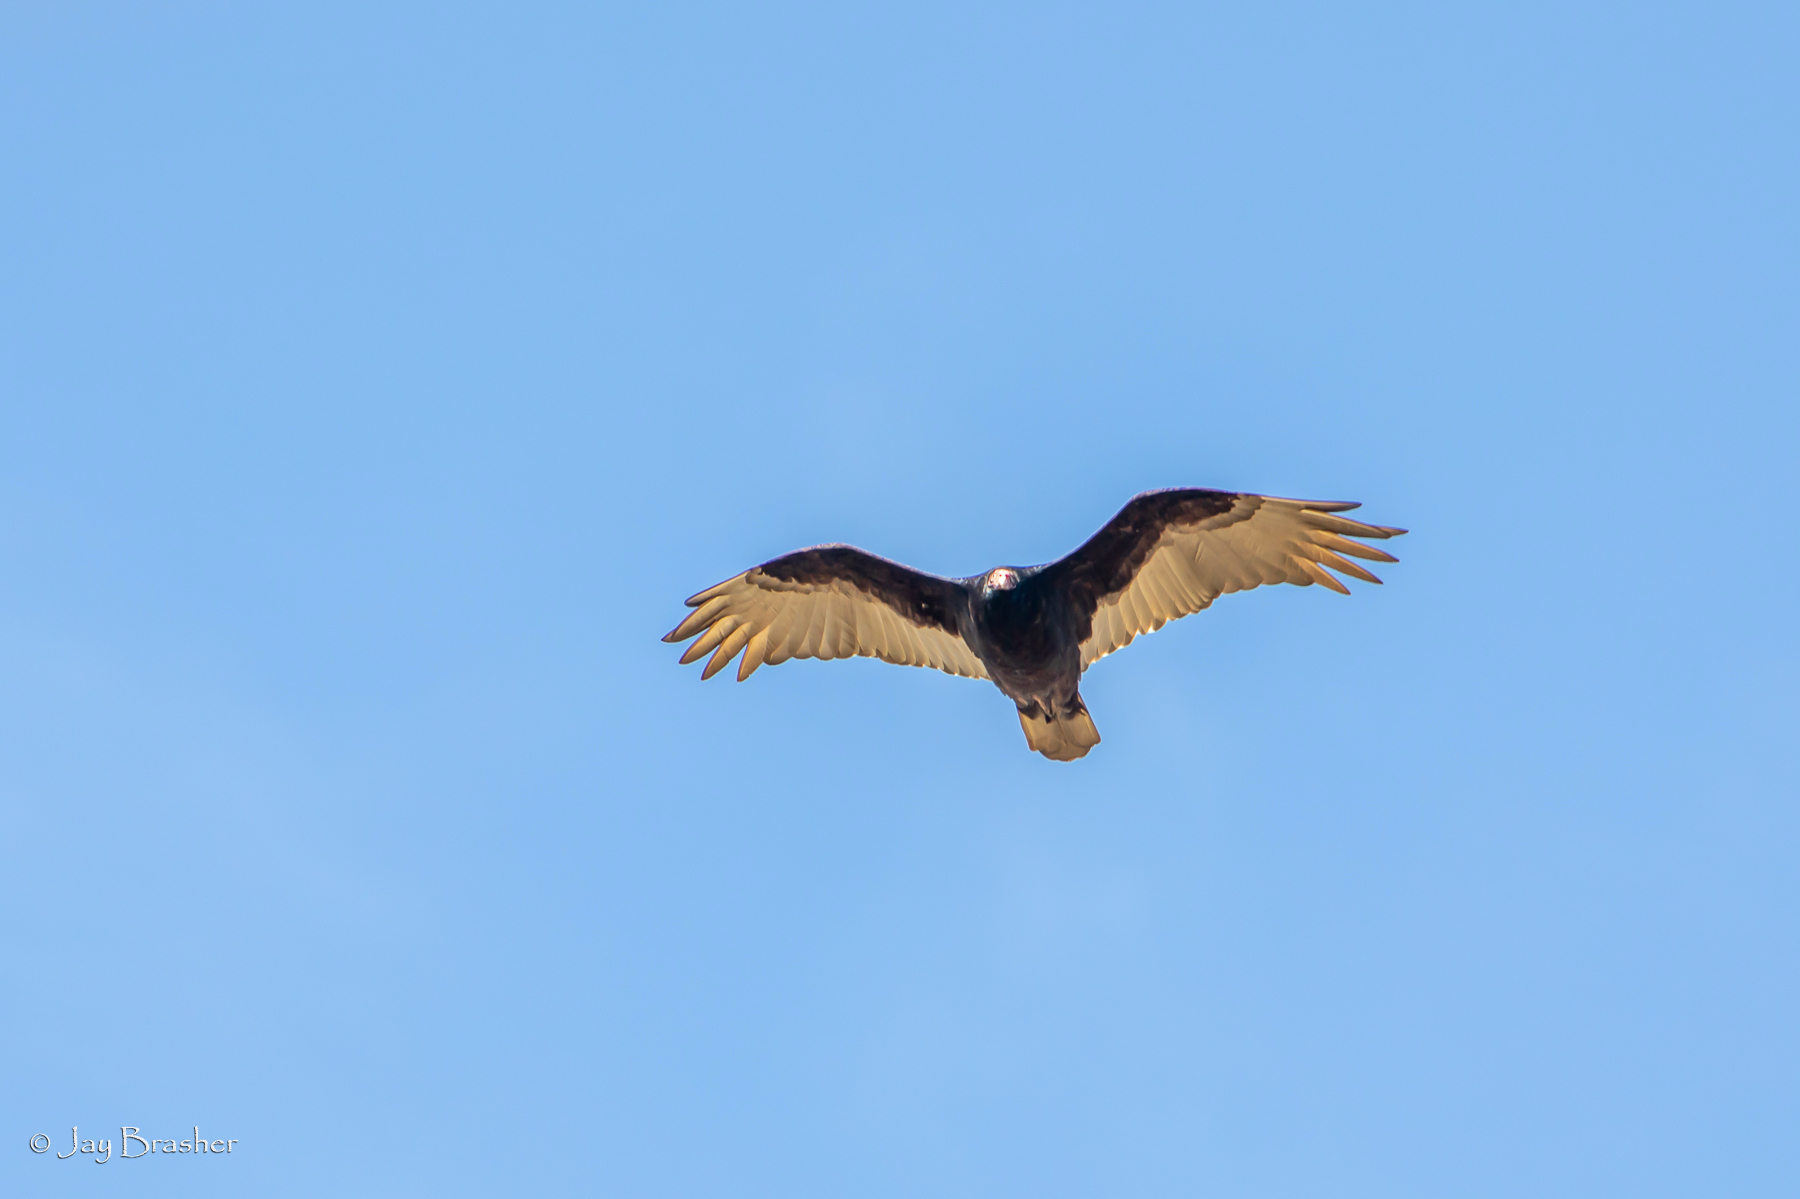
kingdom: Animalia
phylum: Chordata
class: Aves
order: Accipitriformes
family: Cathartidae
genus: Cathartes
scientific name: Cathartes aura
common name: Turkey vulture
